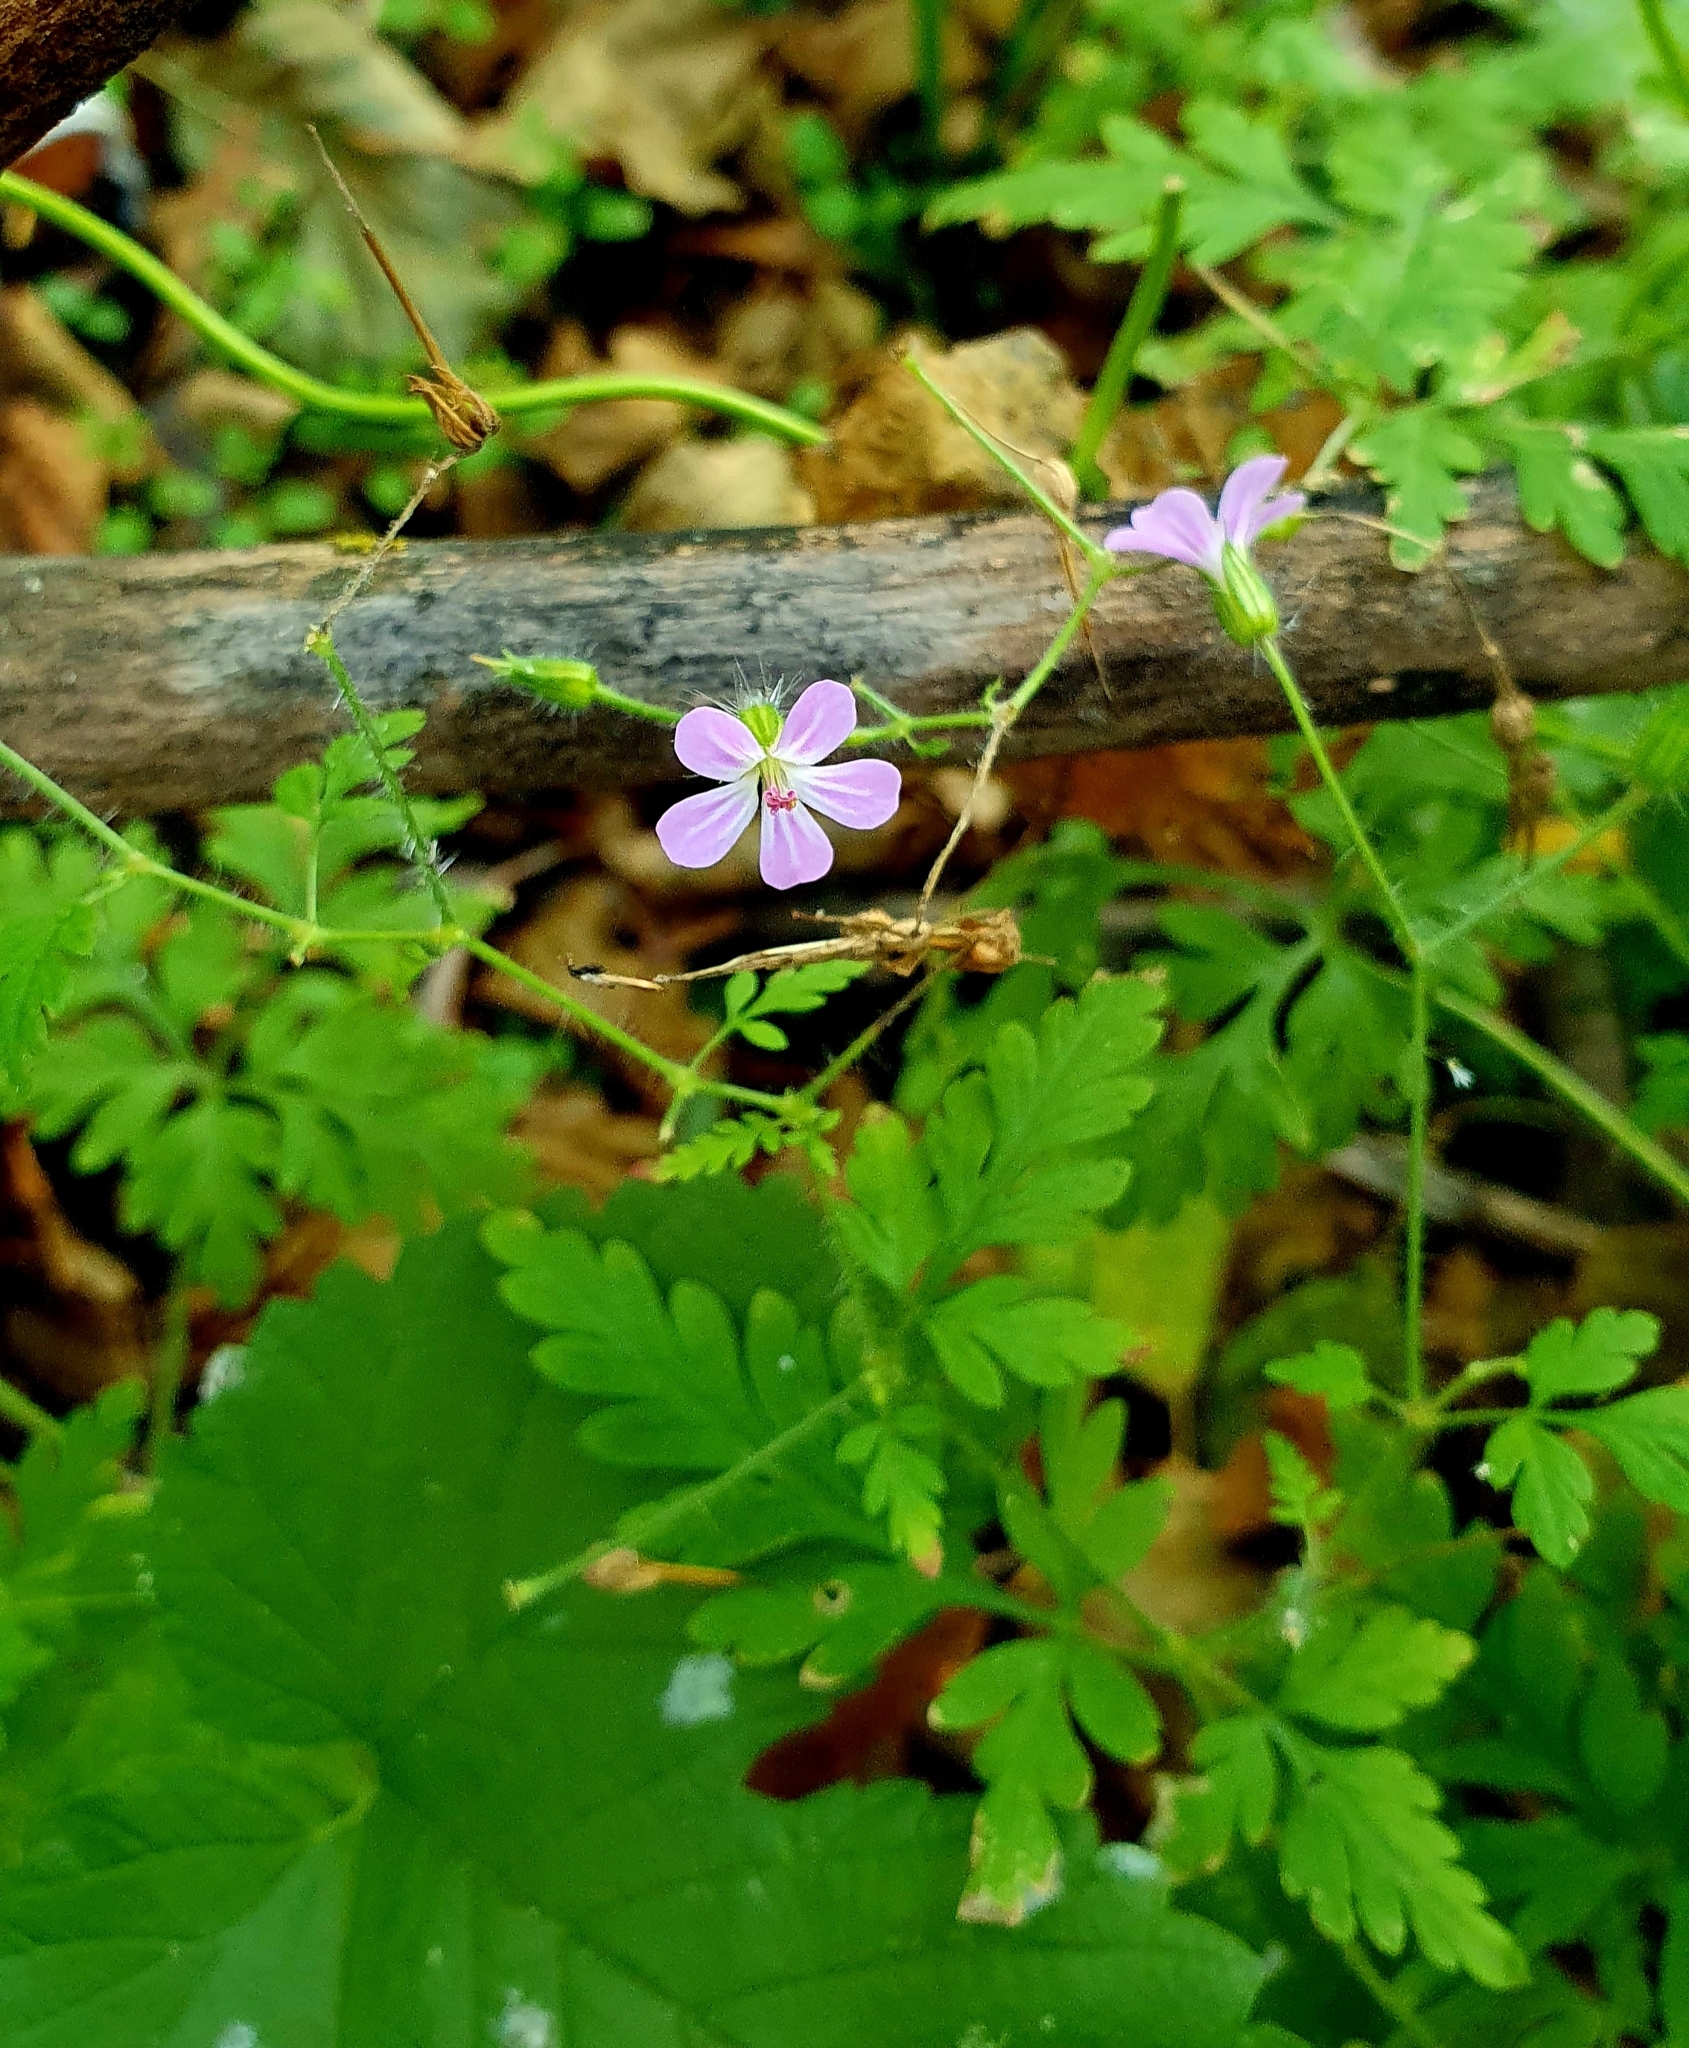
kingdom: Plantae
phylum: Tracheophyta
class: Magnoliopsida
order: Geraniales
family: Geraniaceae
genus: Geranium
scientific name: Geranium robertianum
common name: Herb-robert
